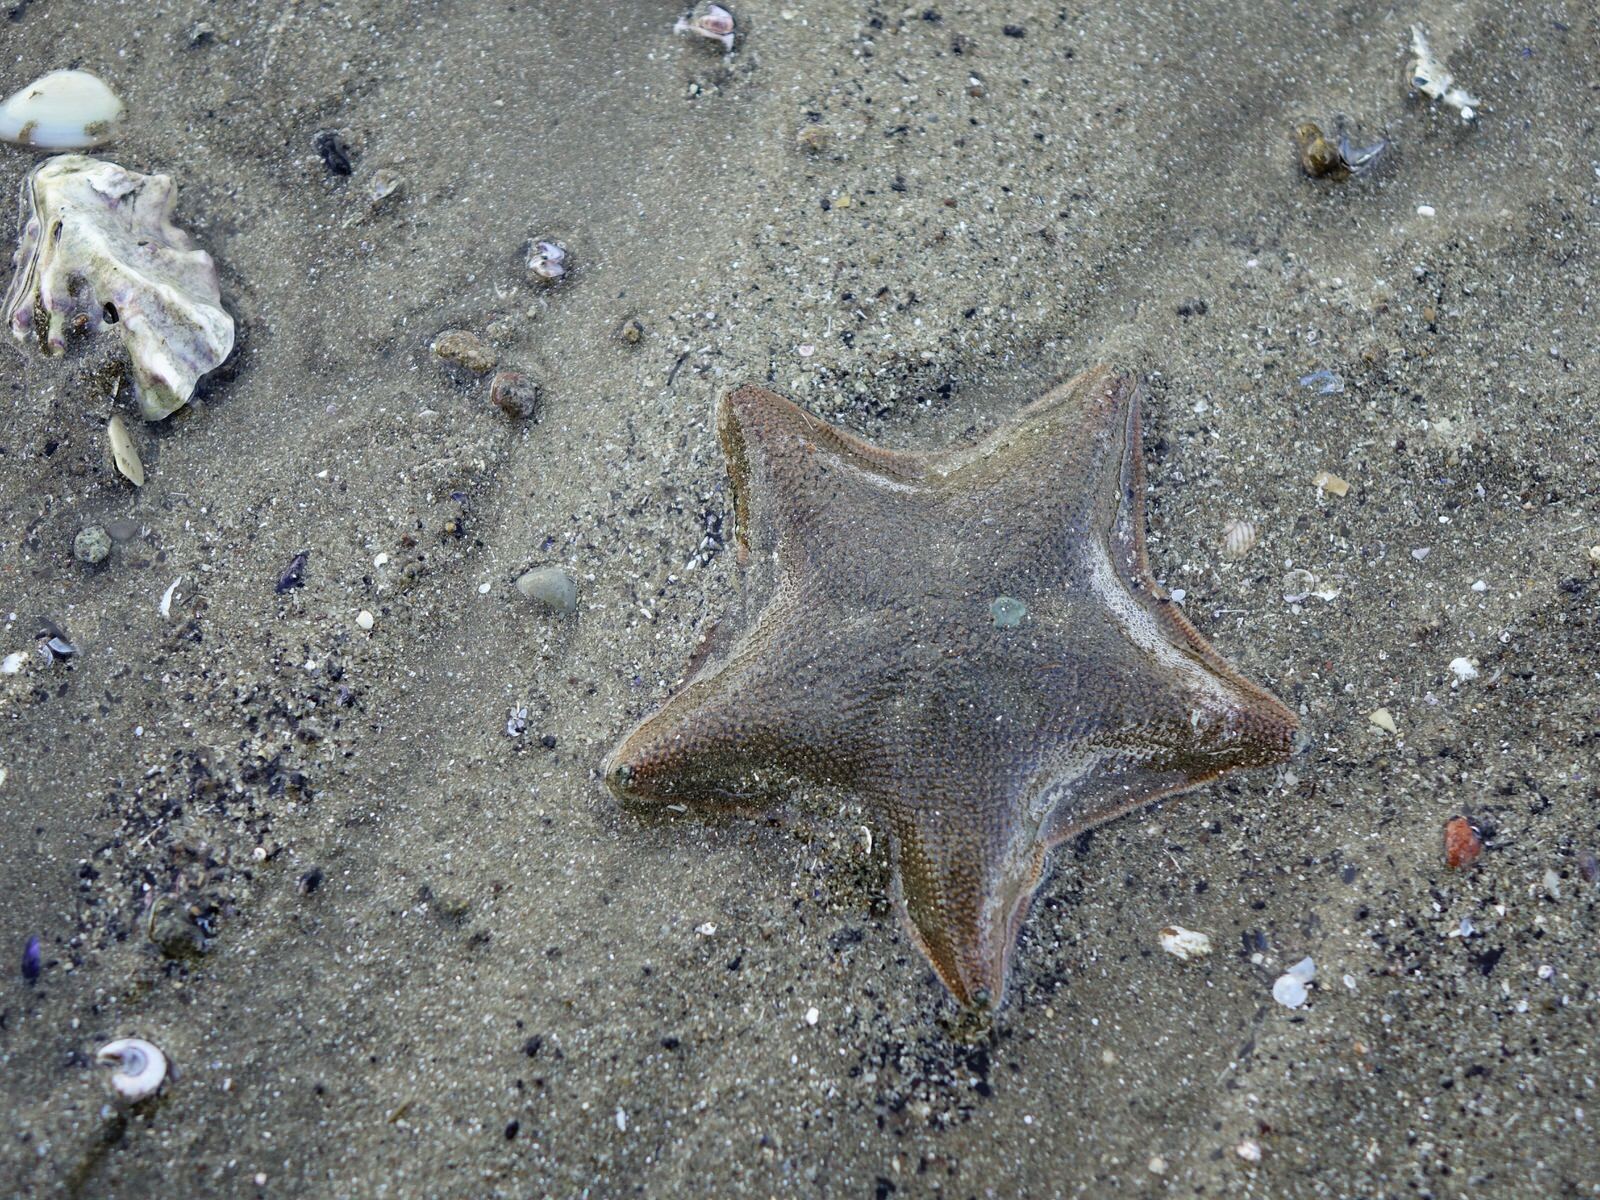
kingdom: Animalia
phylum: Echinodermata
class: Asteroidea
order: Valvatida
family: Asterinidae
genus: Patiriella
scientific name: Patiriella regularis
